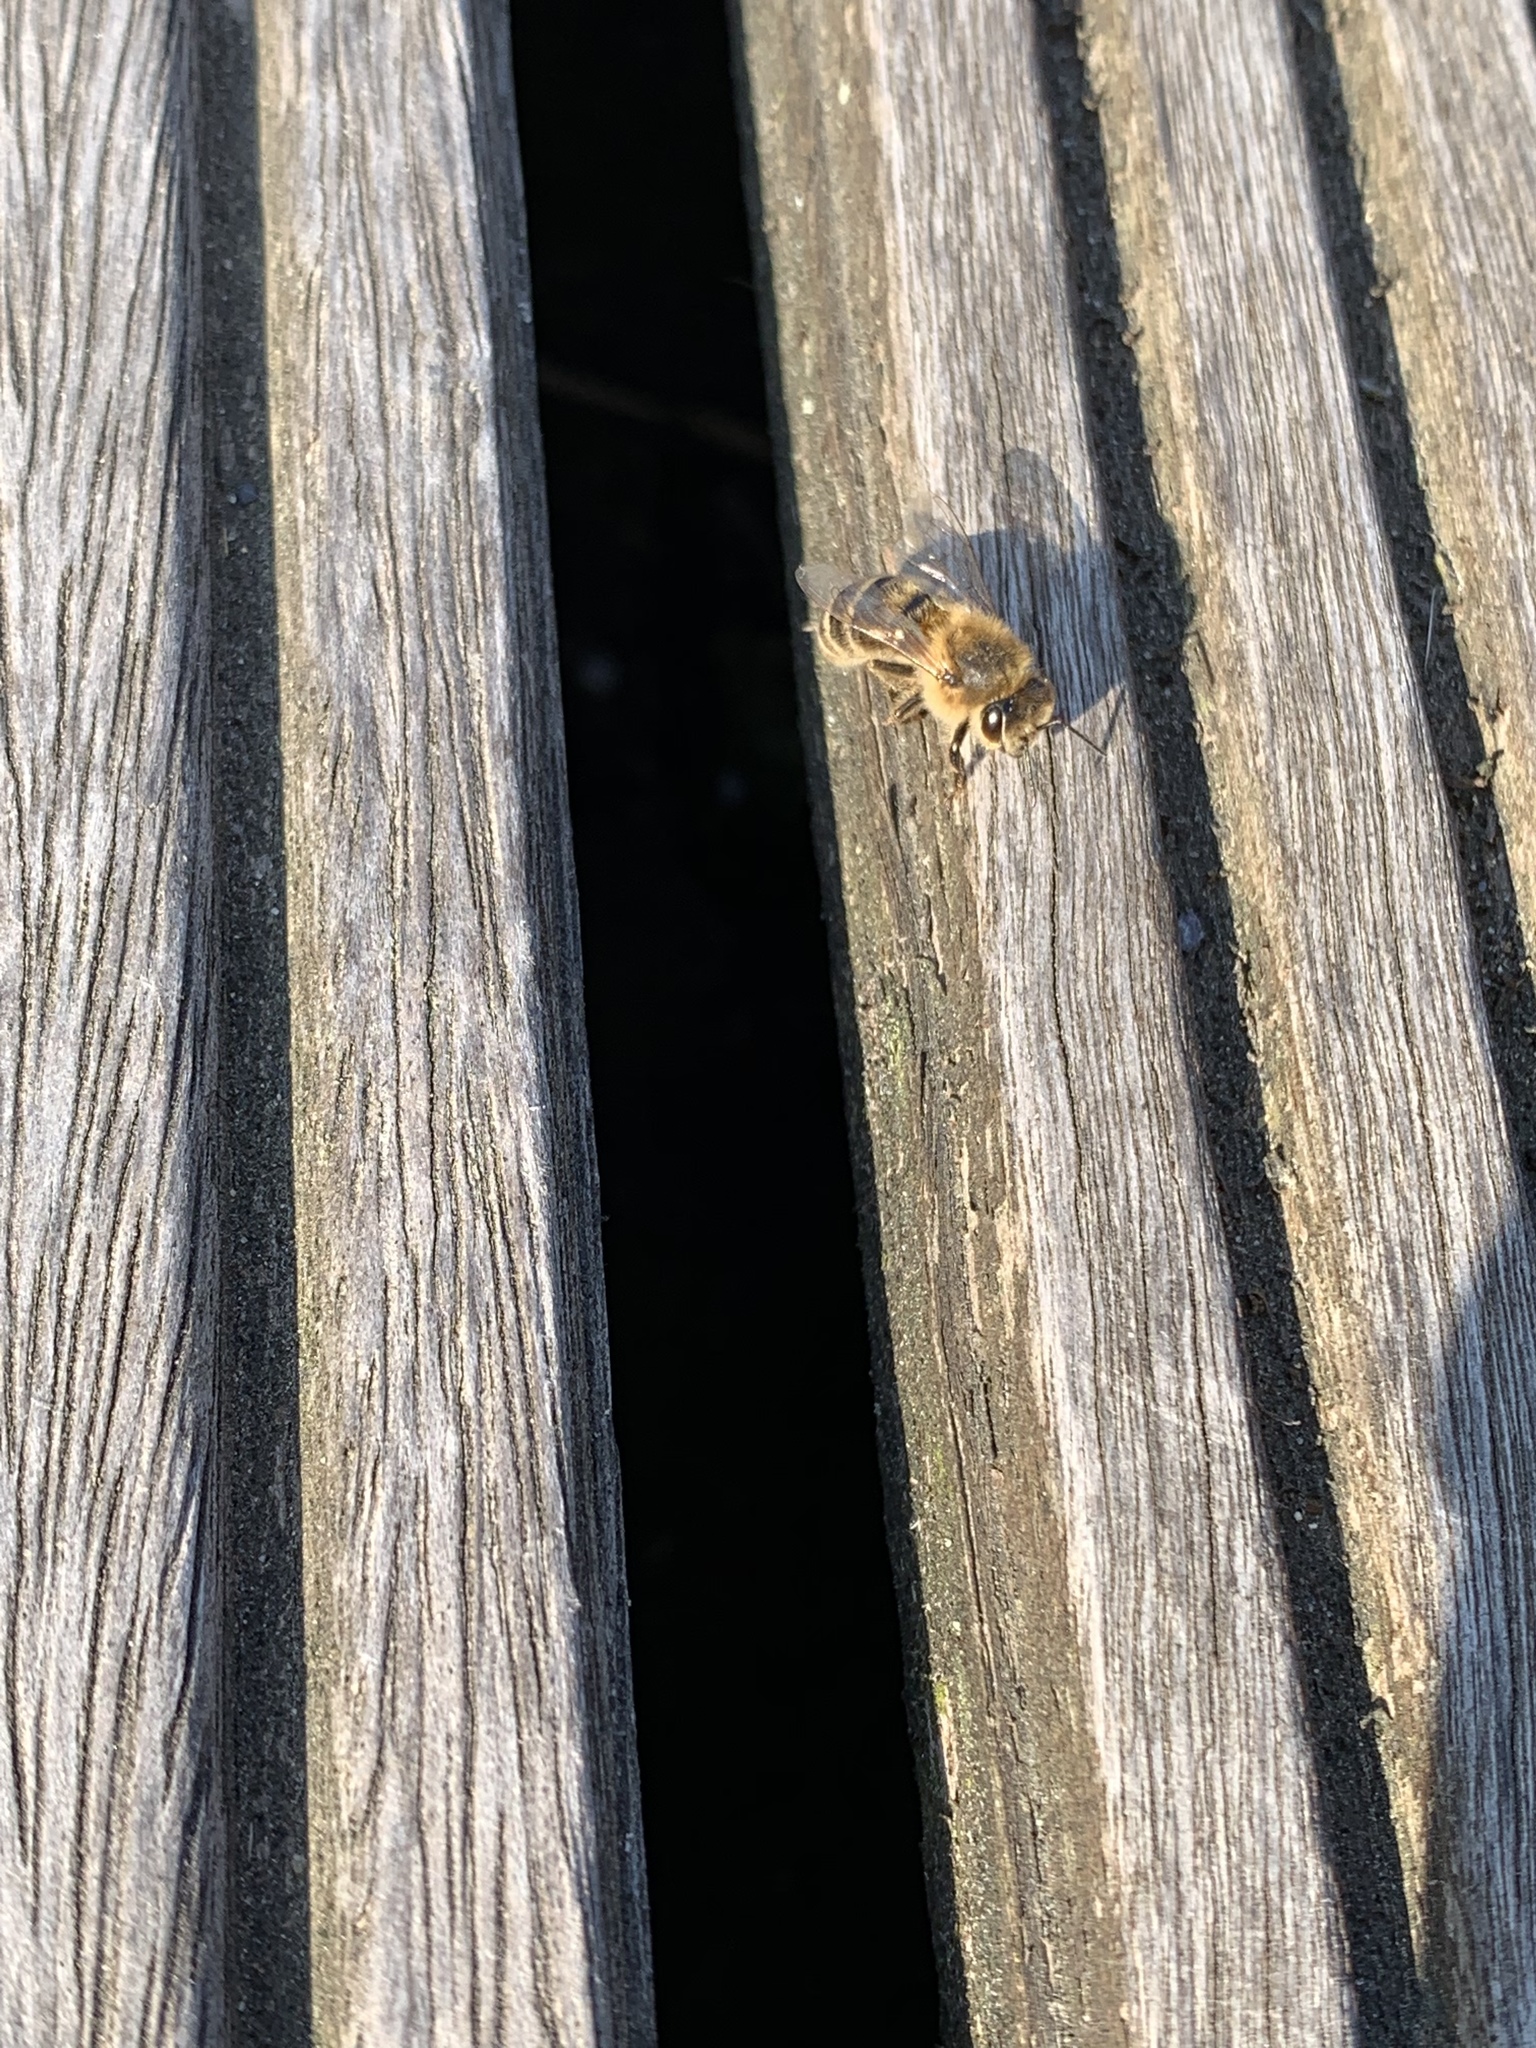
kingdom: Animalia
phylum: Arthropoda
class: Insecta
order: Hymenoptera
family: Apidae
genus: Apis
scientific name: Apis mellifera
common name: Honey bee
